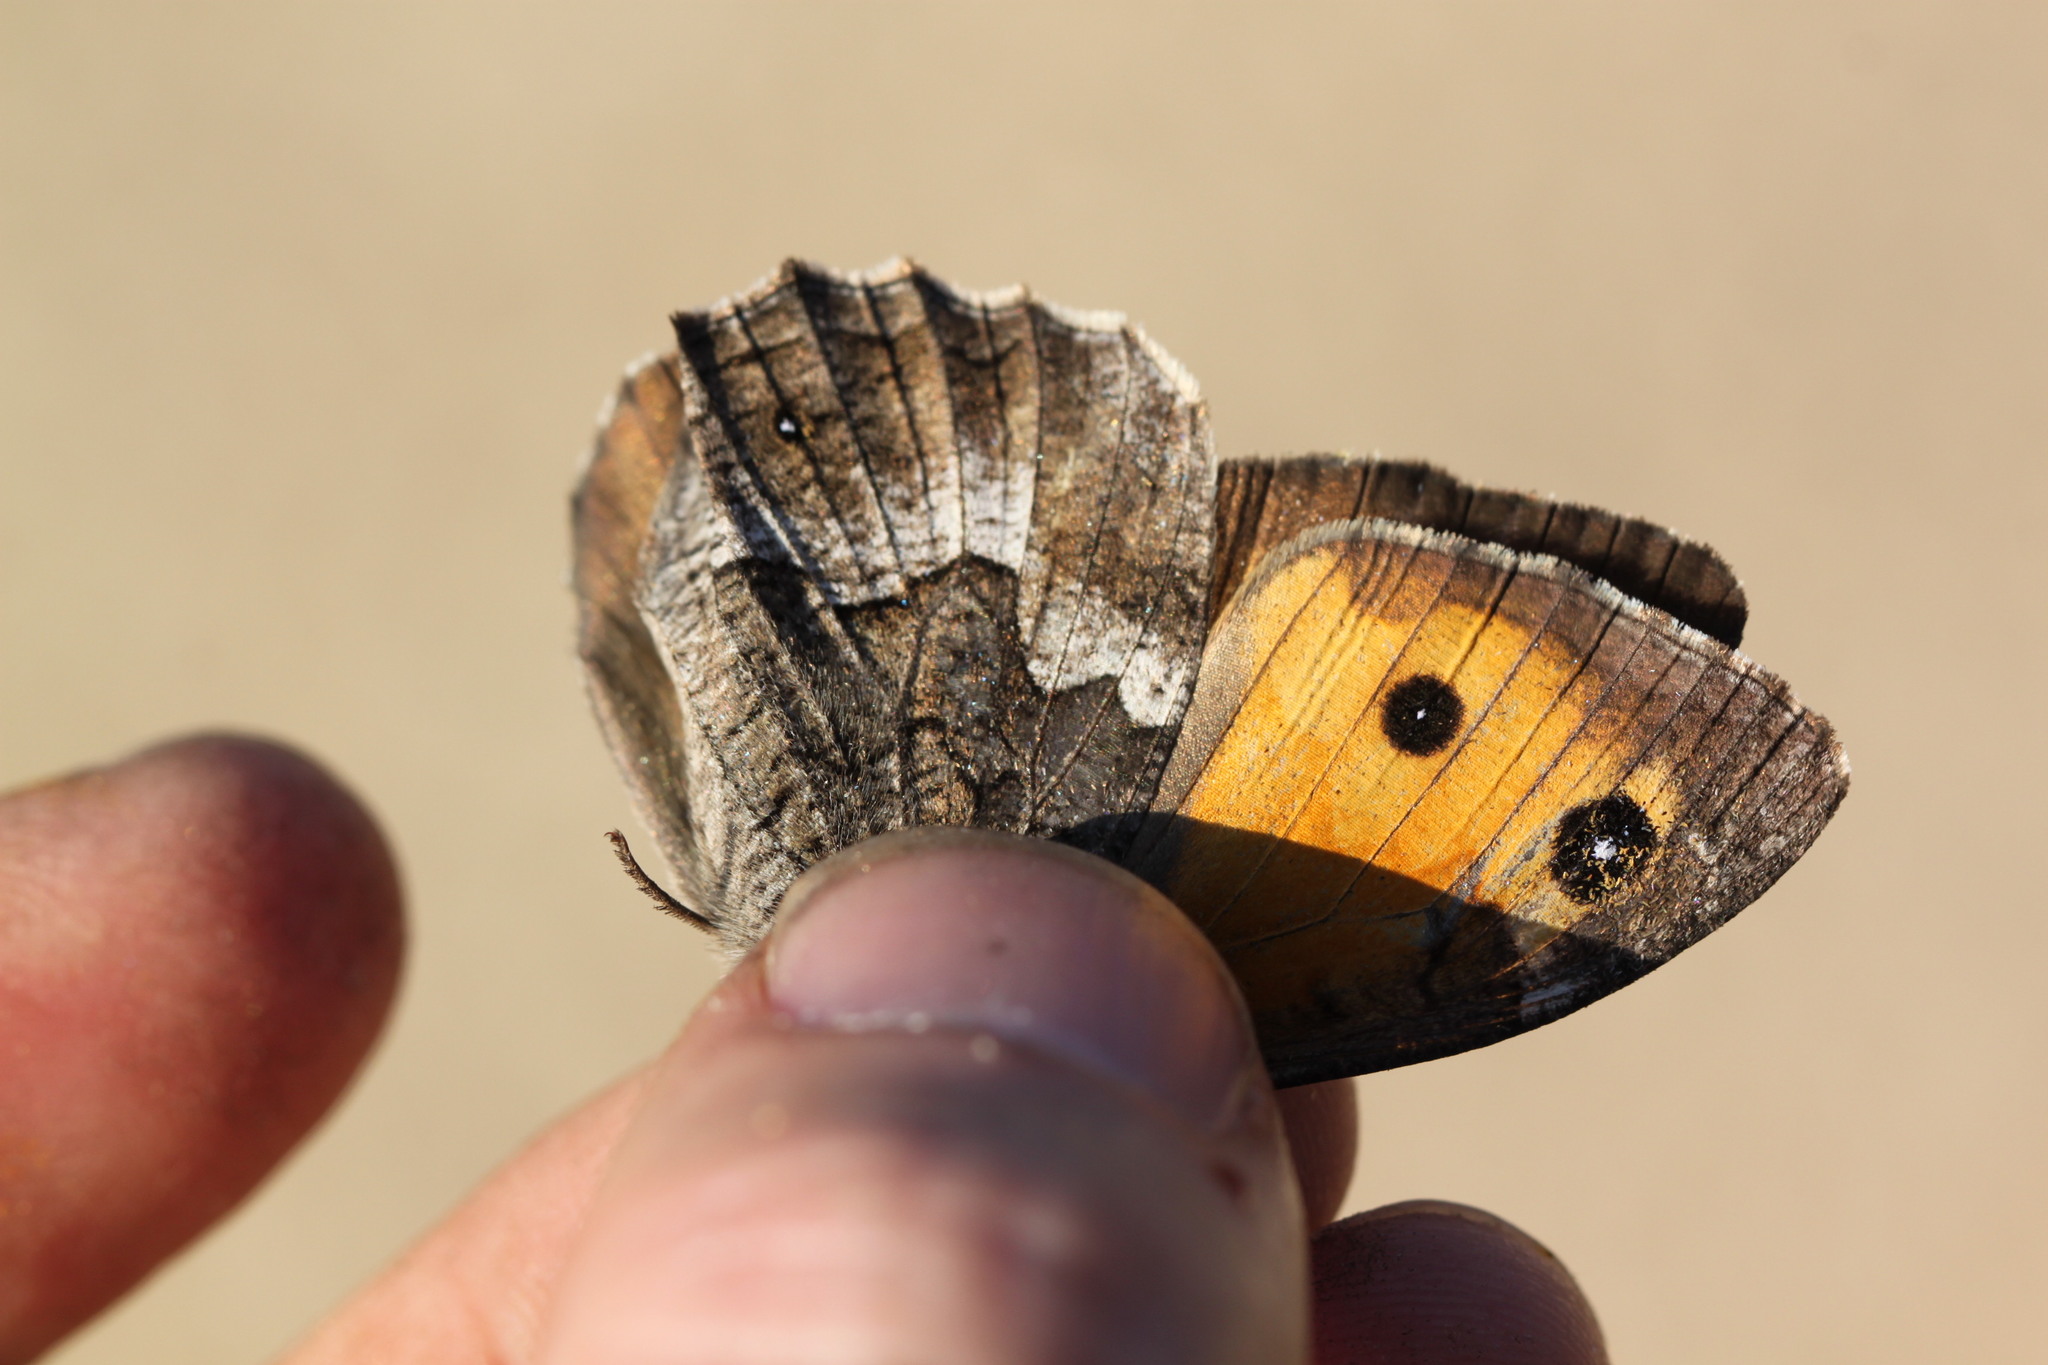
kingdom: Animalia
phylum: Arthropoda
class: Insecta
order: Lepidoptera
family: Nymphalidae
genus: Hipparchia
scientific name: Hipparchia cypriensis
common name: Cyprus grayling
